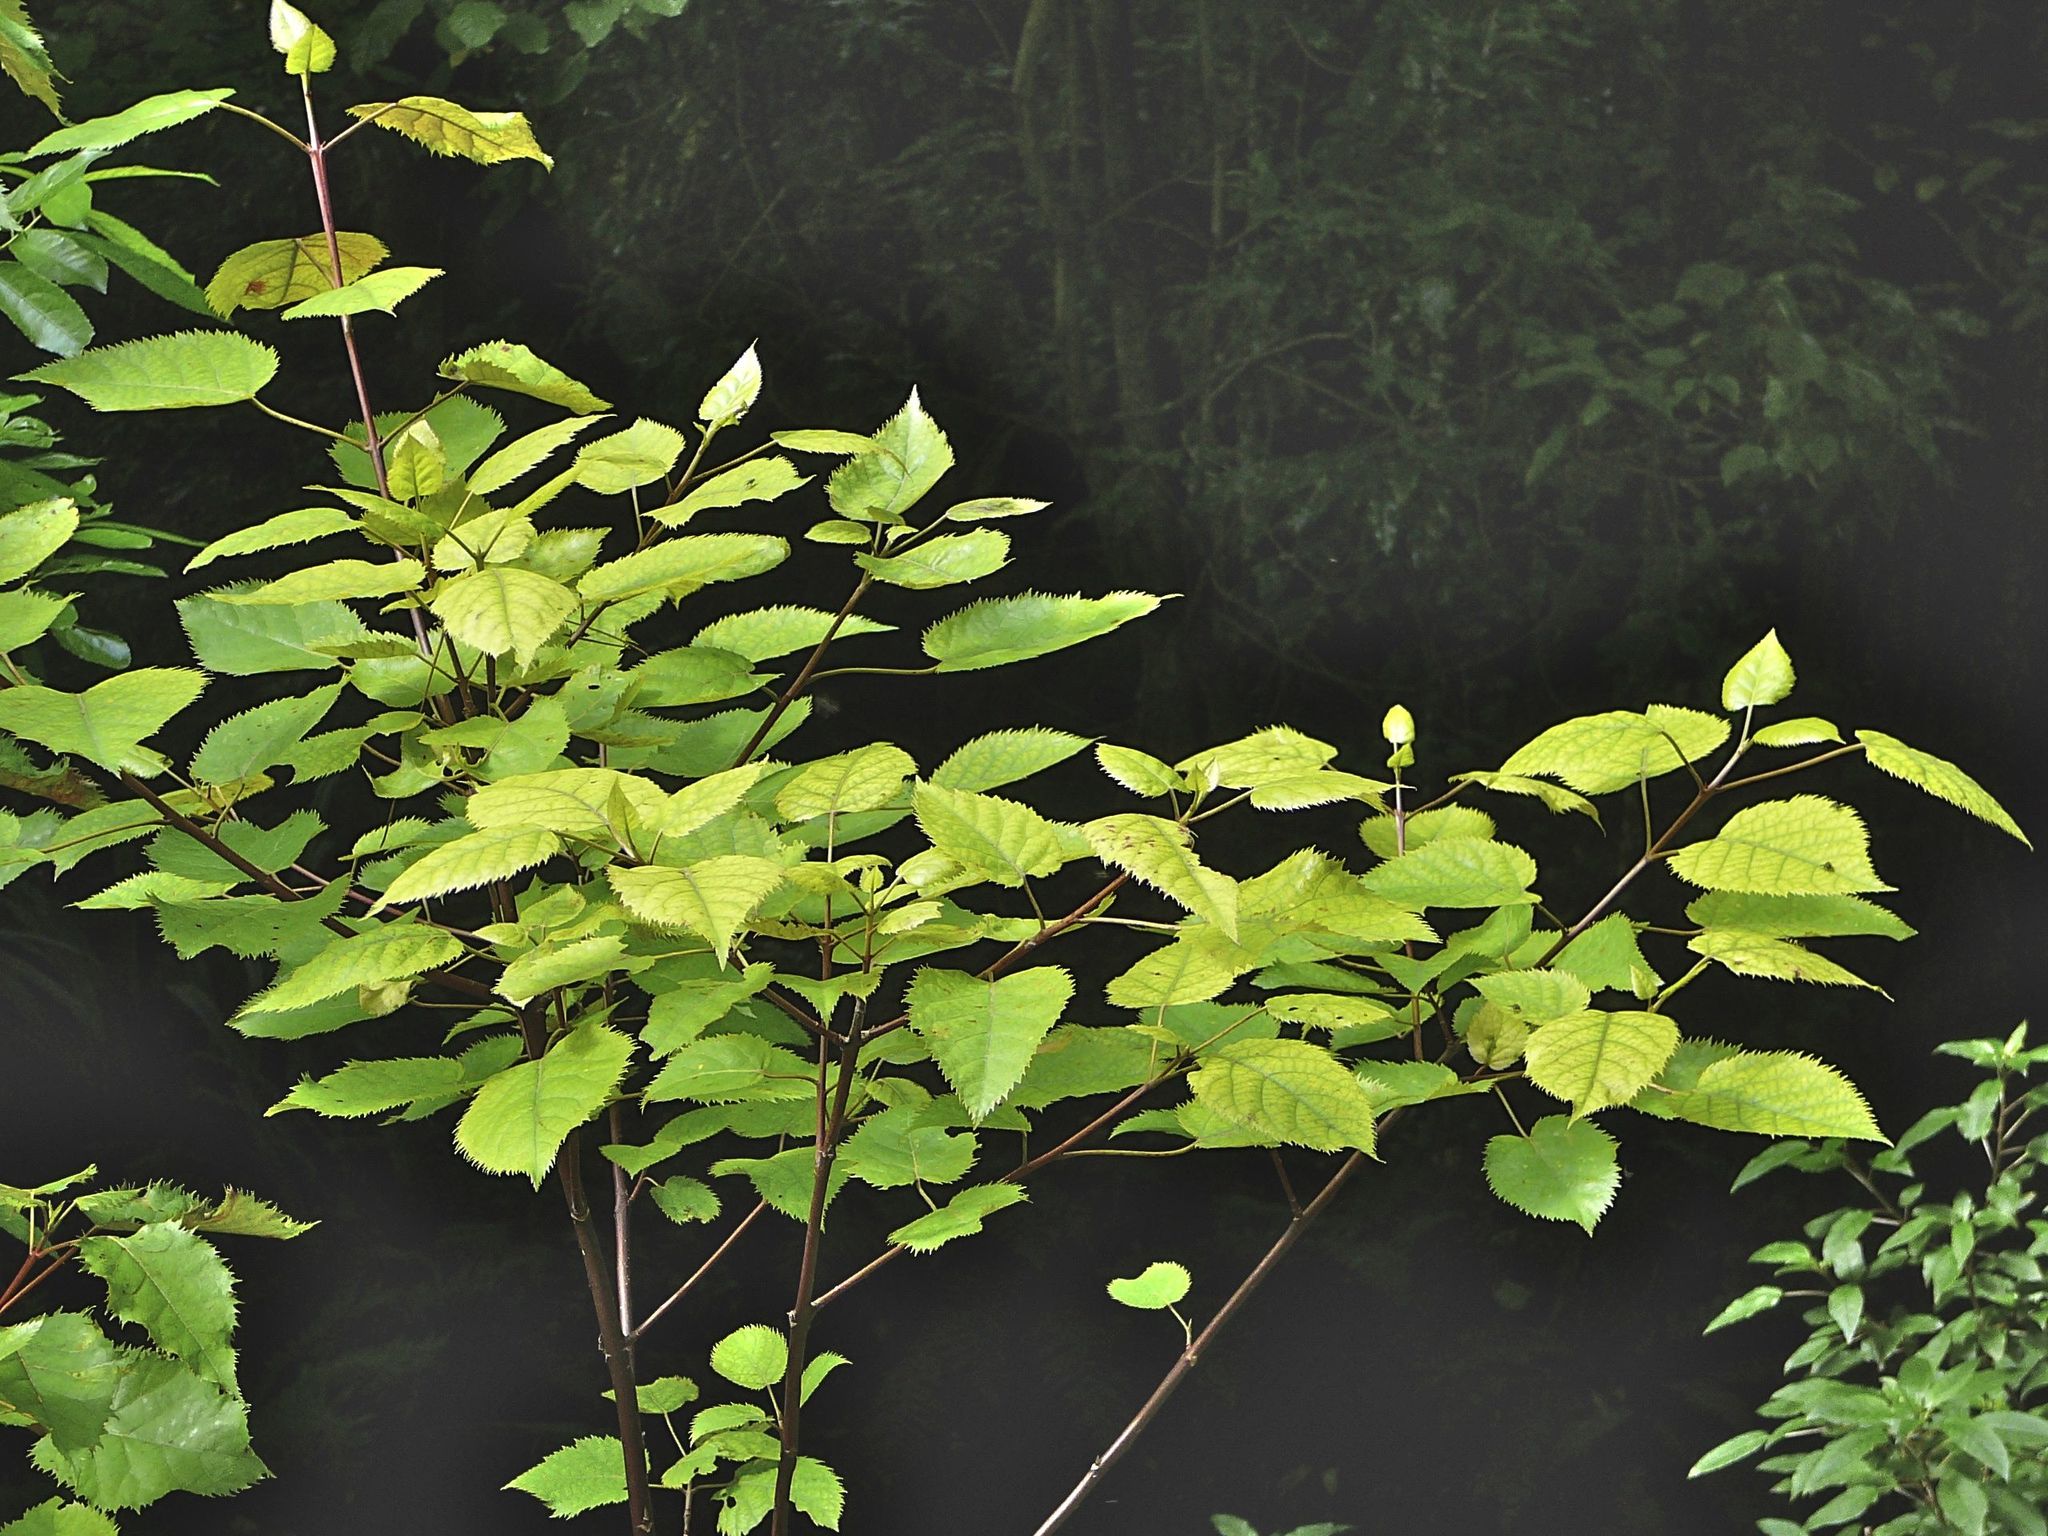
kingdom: Plantae
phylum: Tracheophyta
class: Magnoliopsida
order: Oxalidales
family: Elaeocarpaceae
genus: Aristotelia
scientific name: Aristotelia serrata
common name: New zealand wineberry
